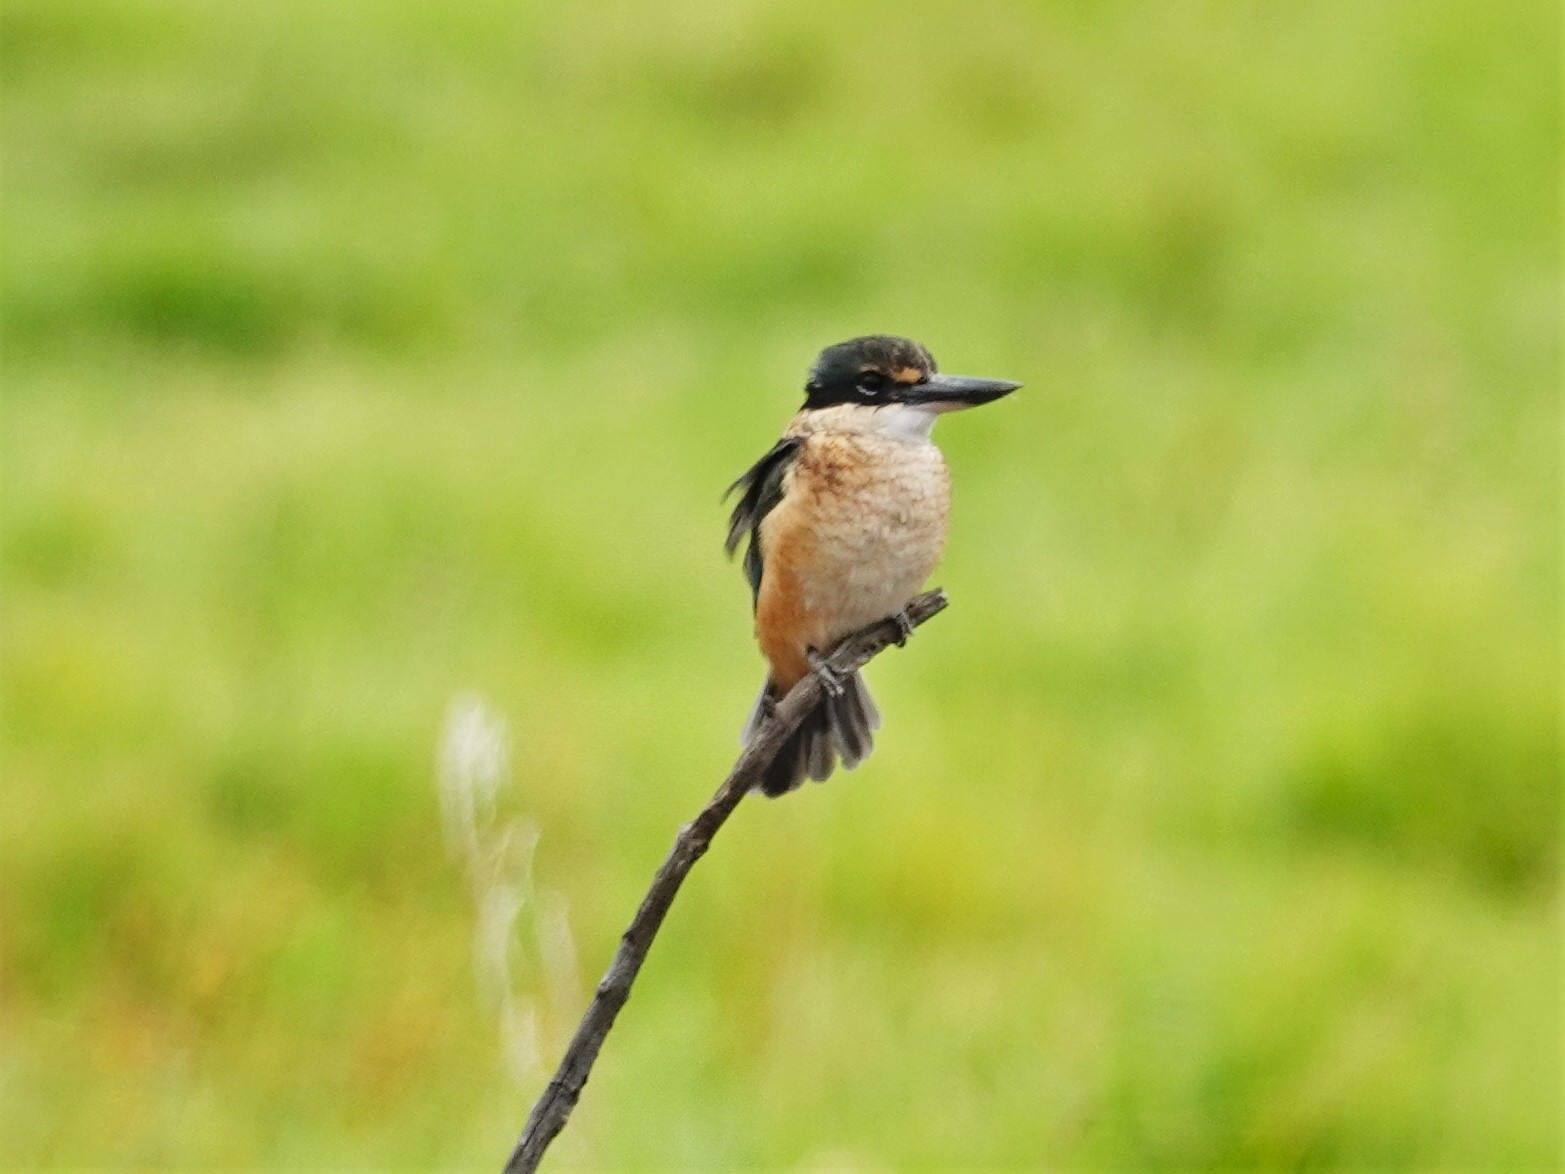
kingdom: Animalia
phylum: Chordata
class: Aves
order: Coraciiformes
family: Alcedinidae
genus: Todiramphus
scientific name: Todiramphus sanctus
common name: Sacred kingfisher
